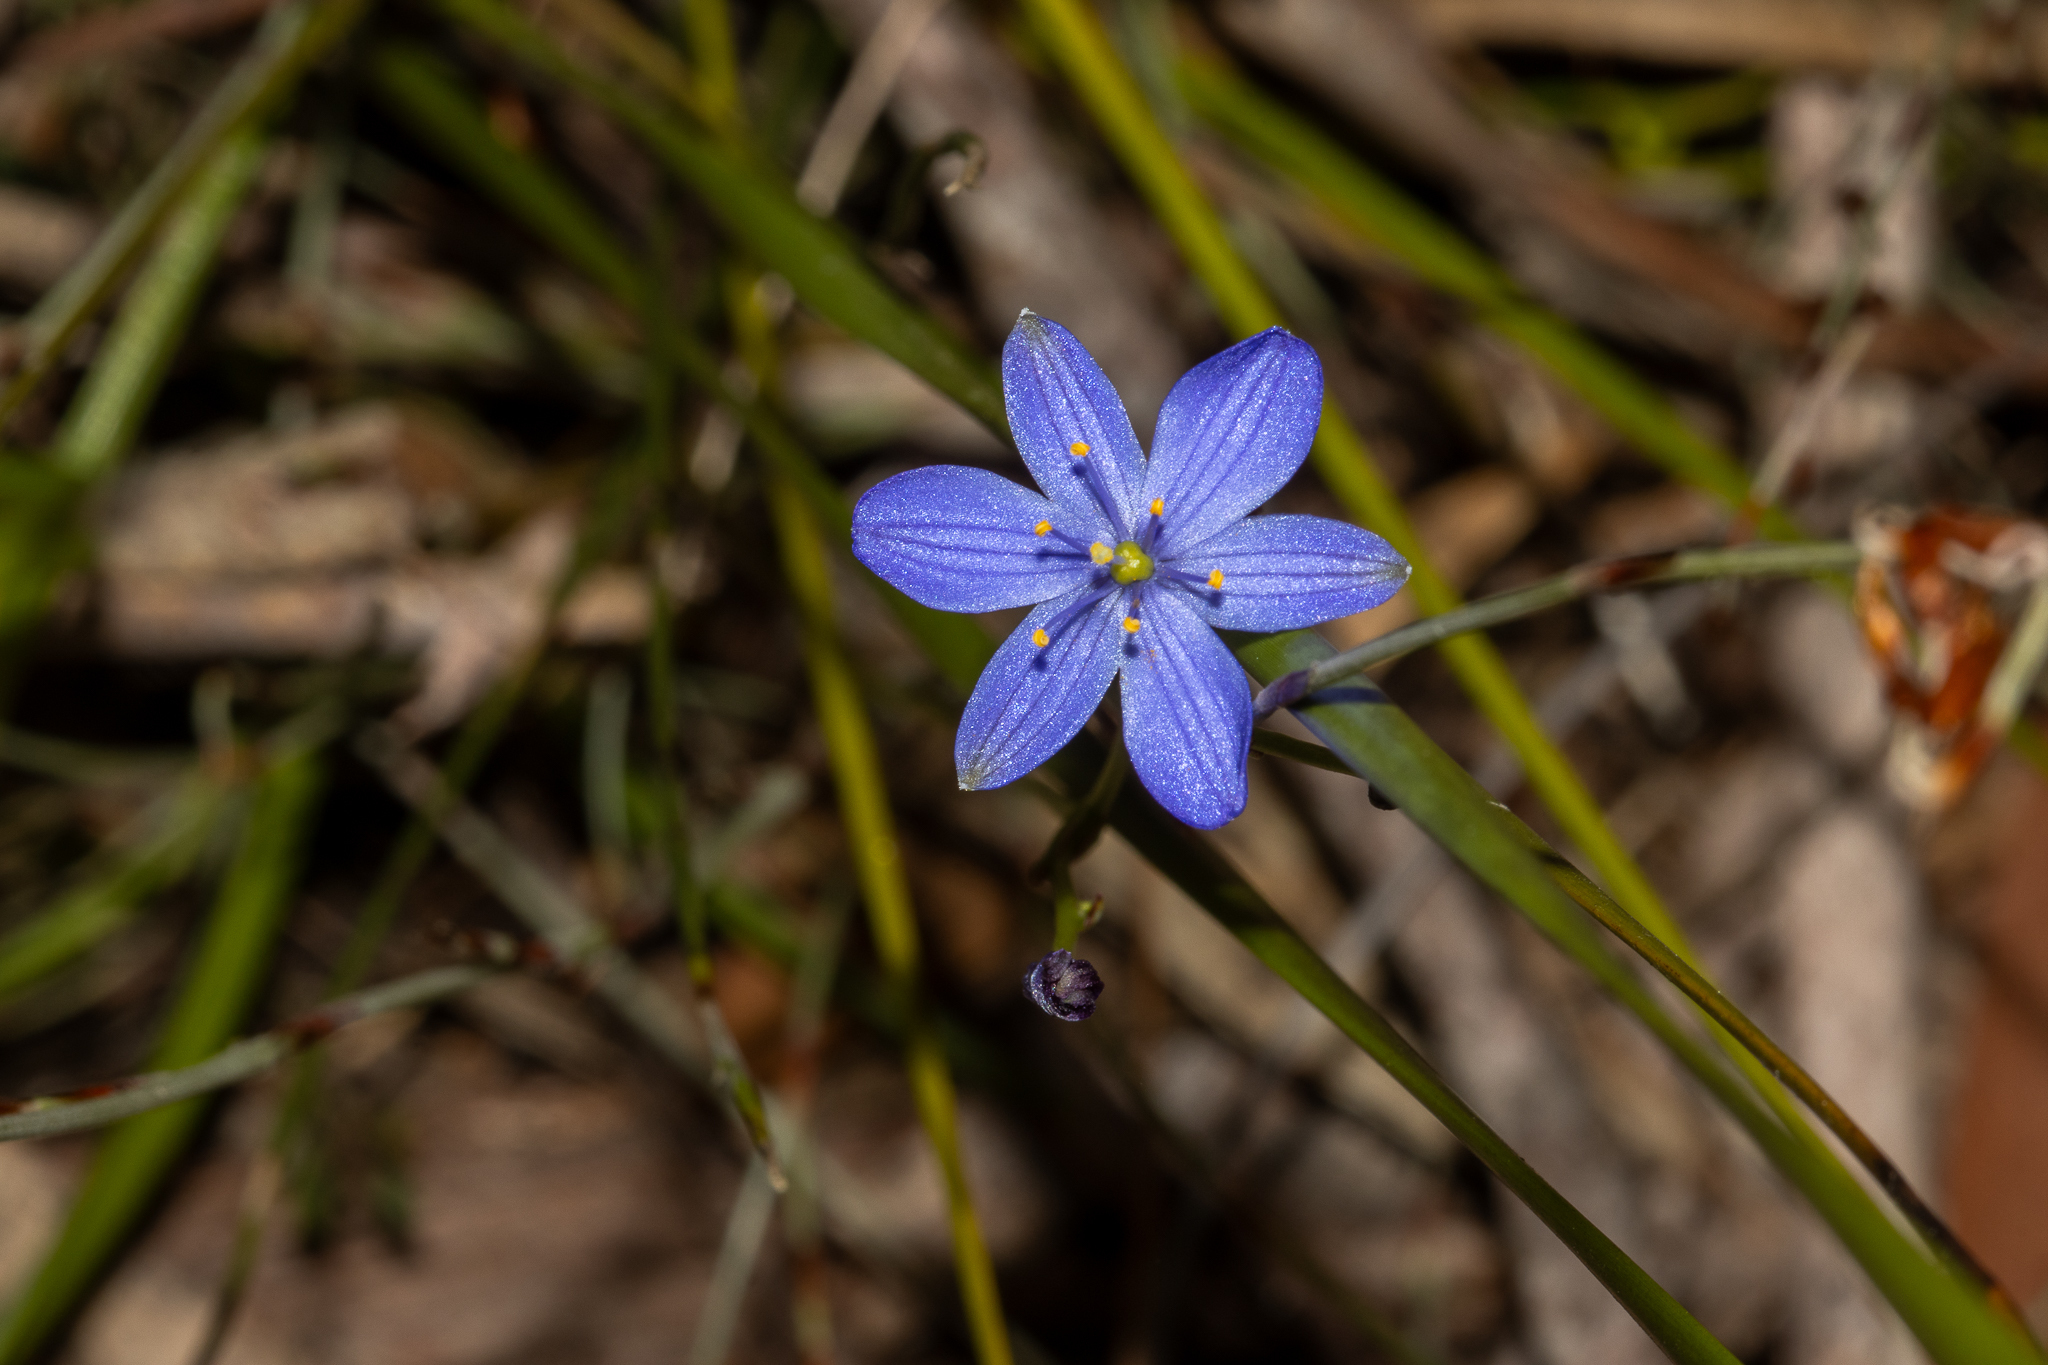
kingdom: Plantae
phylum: Tracheophyta
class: Liliopsida
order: Asparagales
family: Asphodelaceae
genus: Chamaescilla
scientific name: Chamaescilla corymbosa
